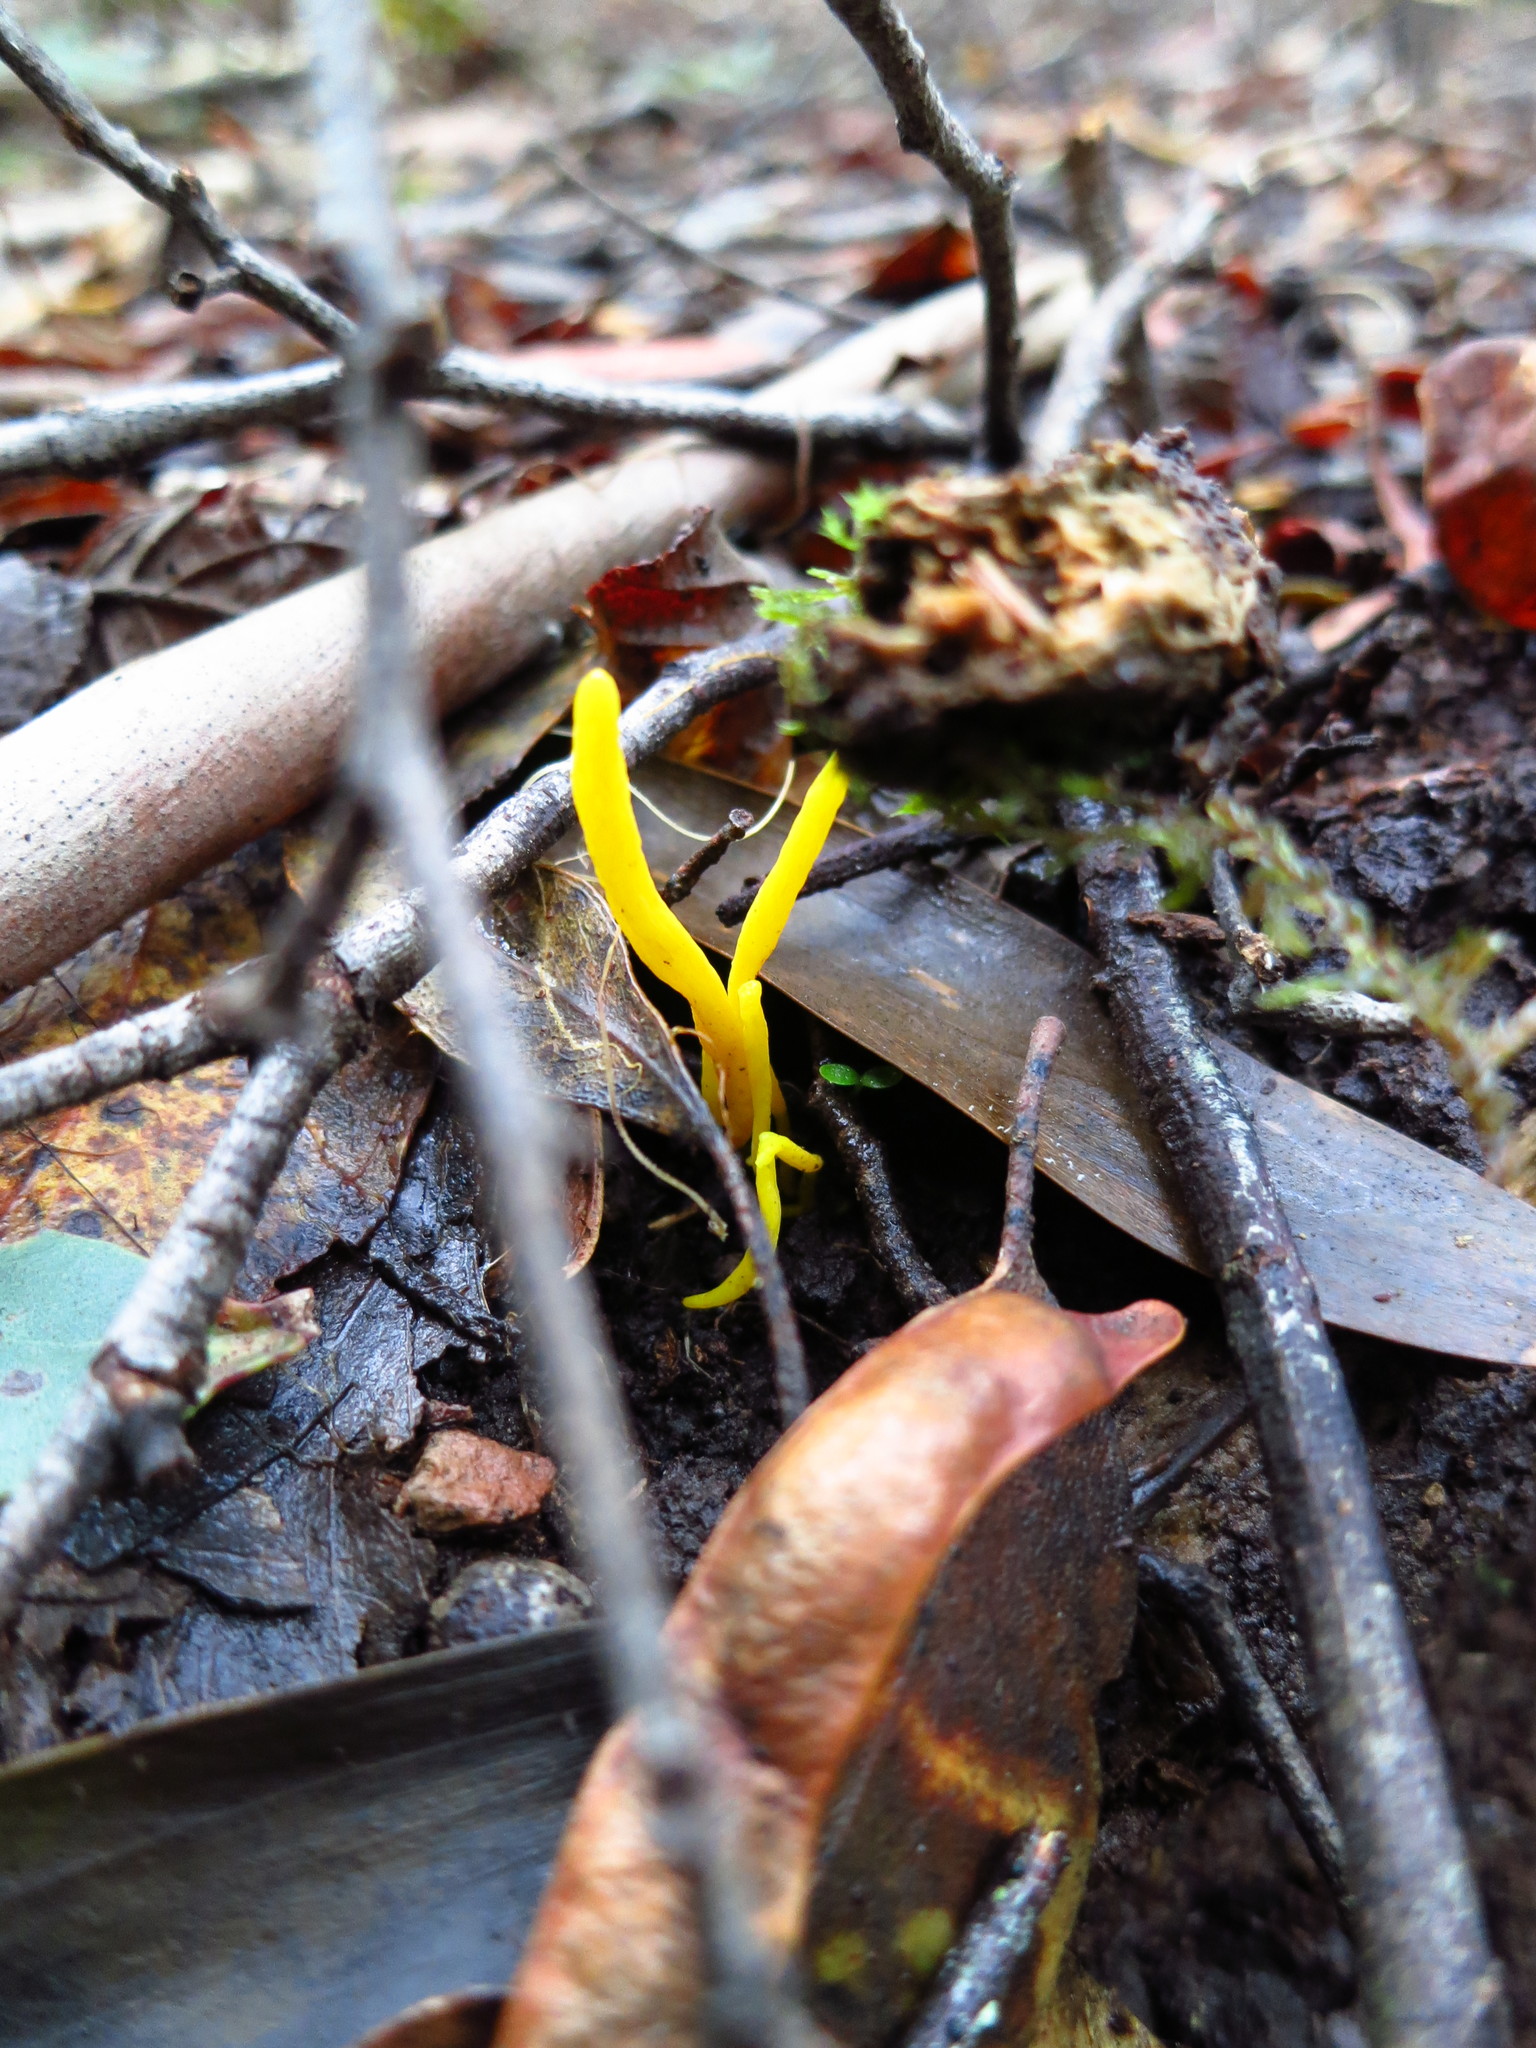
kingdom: Fungi
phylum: Basidiomycota
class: Agaricomycetes
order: Agaricales
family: Clavariaceae
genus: Clavulinopsis
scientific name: Clavulinopsis amoena
